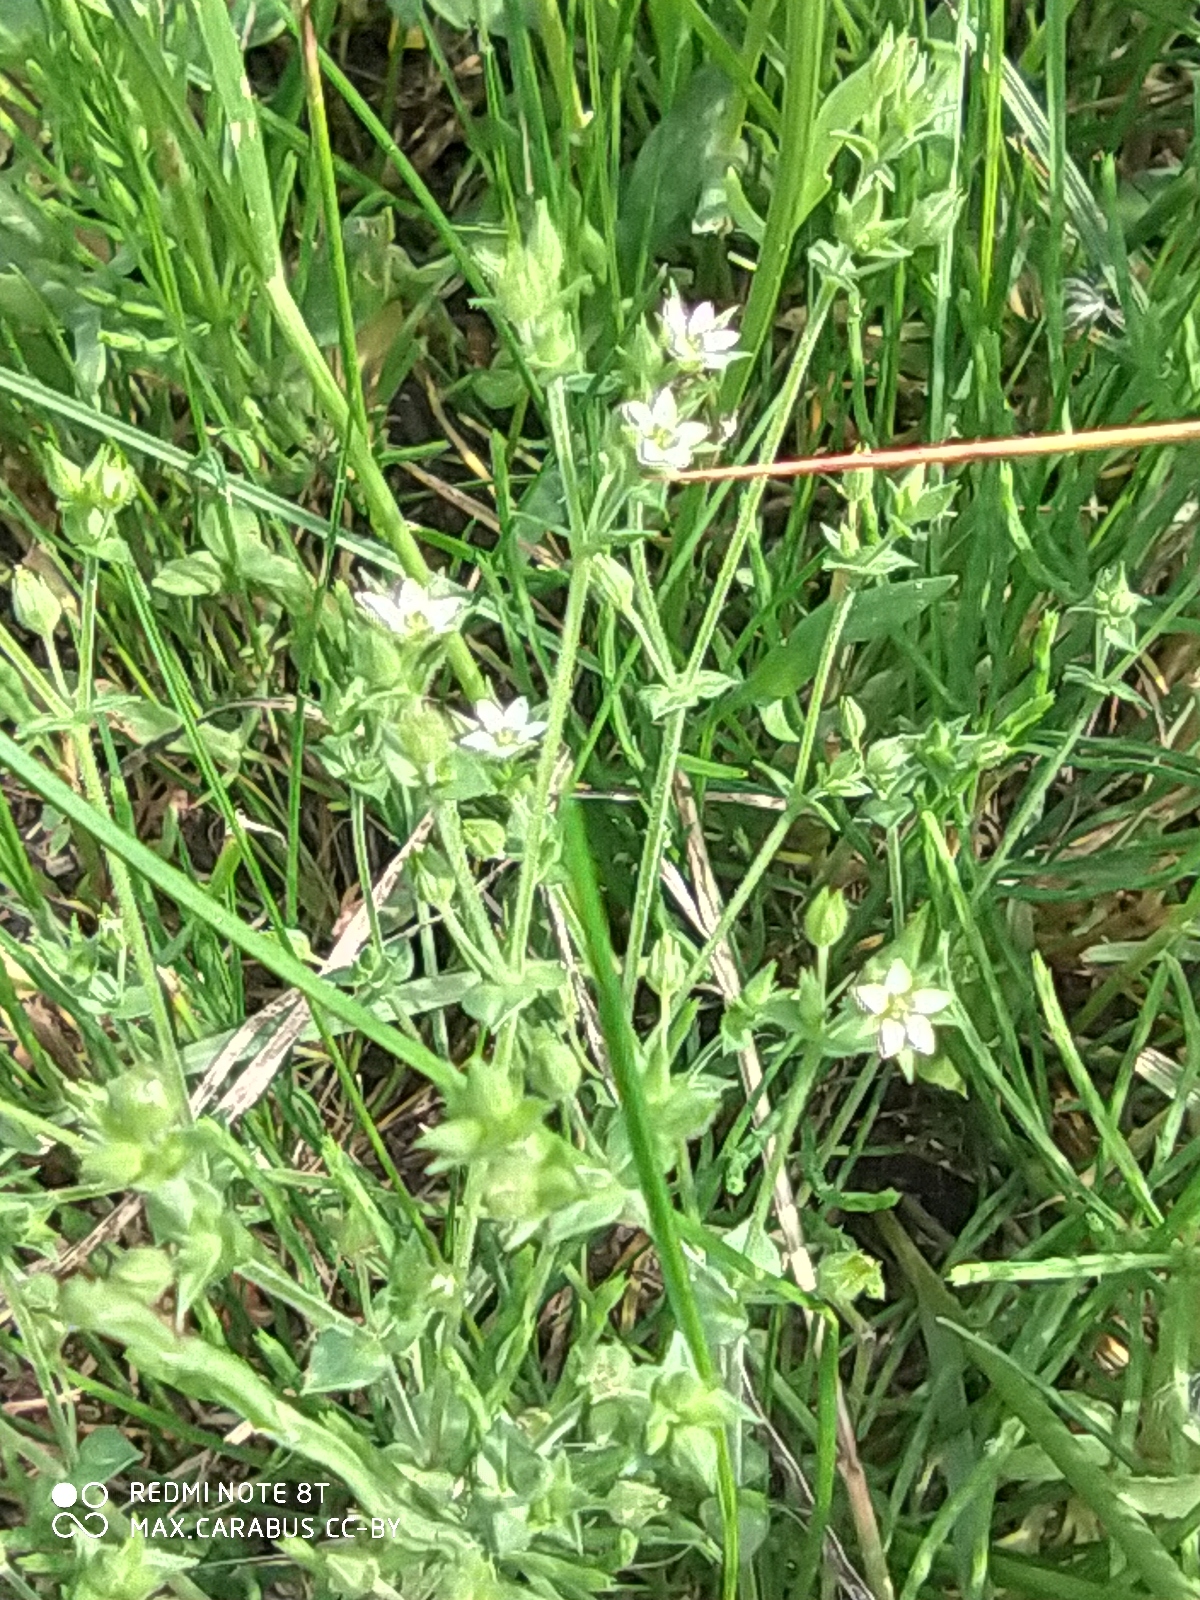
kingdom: Plantae
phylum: Tracheophyta
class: Magnoliopsida
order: Caryophyllales
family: Caryophyllaceae
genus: Arenaria
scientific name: Arenaria serpyllifolia
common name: Thyme-leaved sandwort
